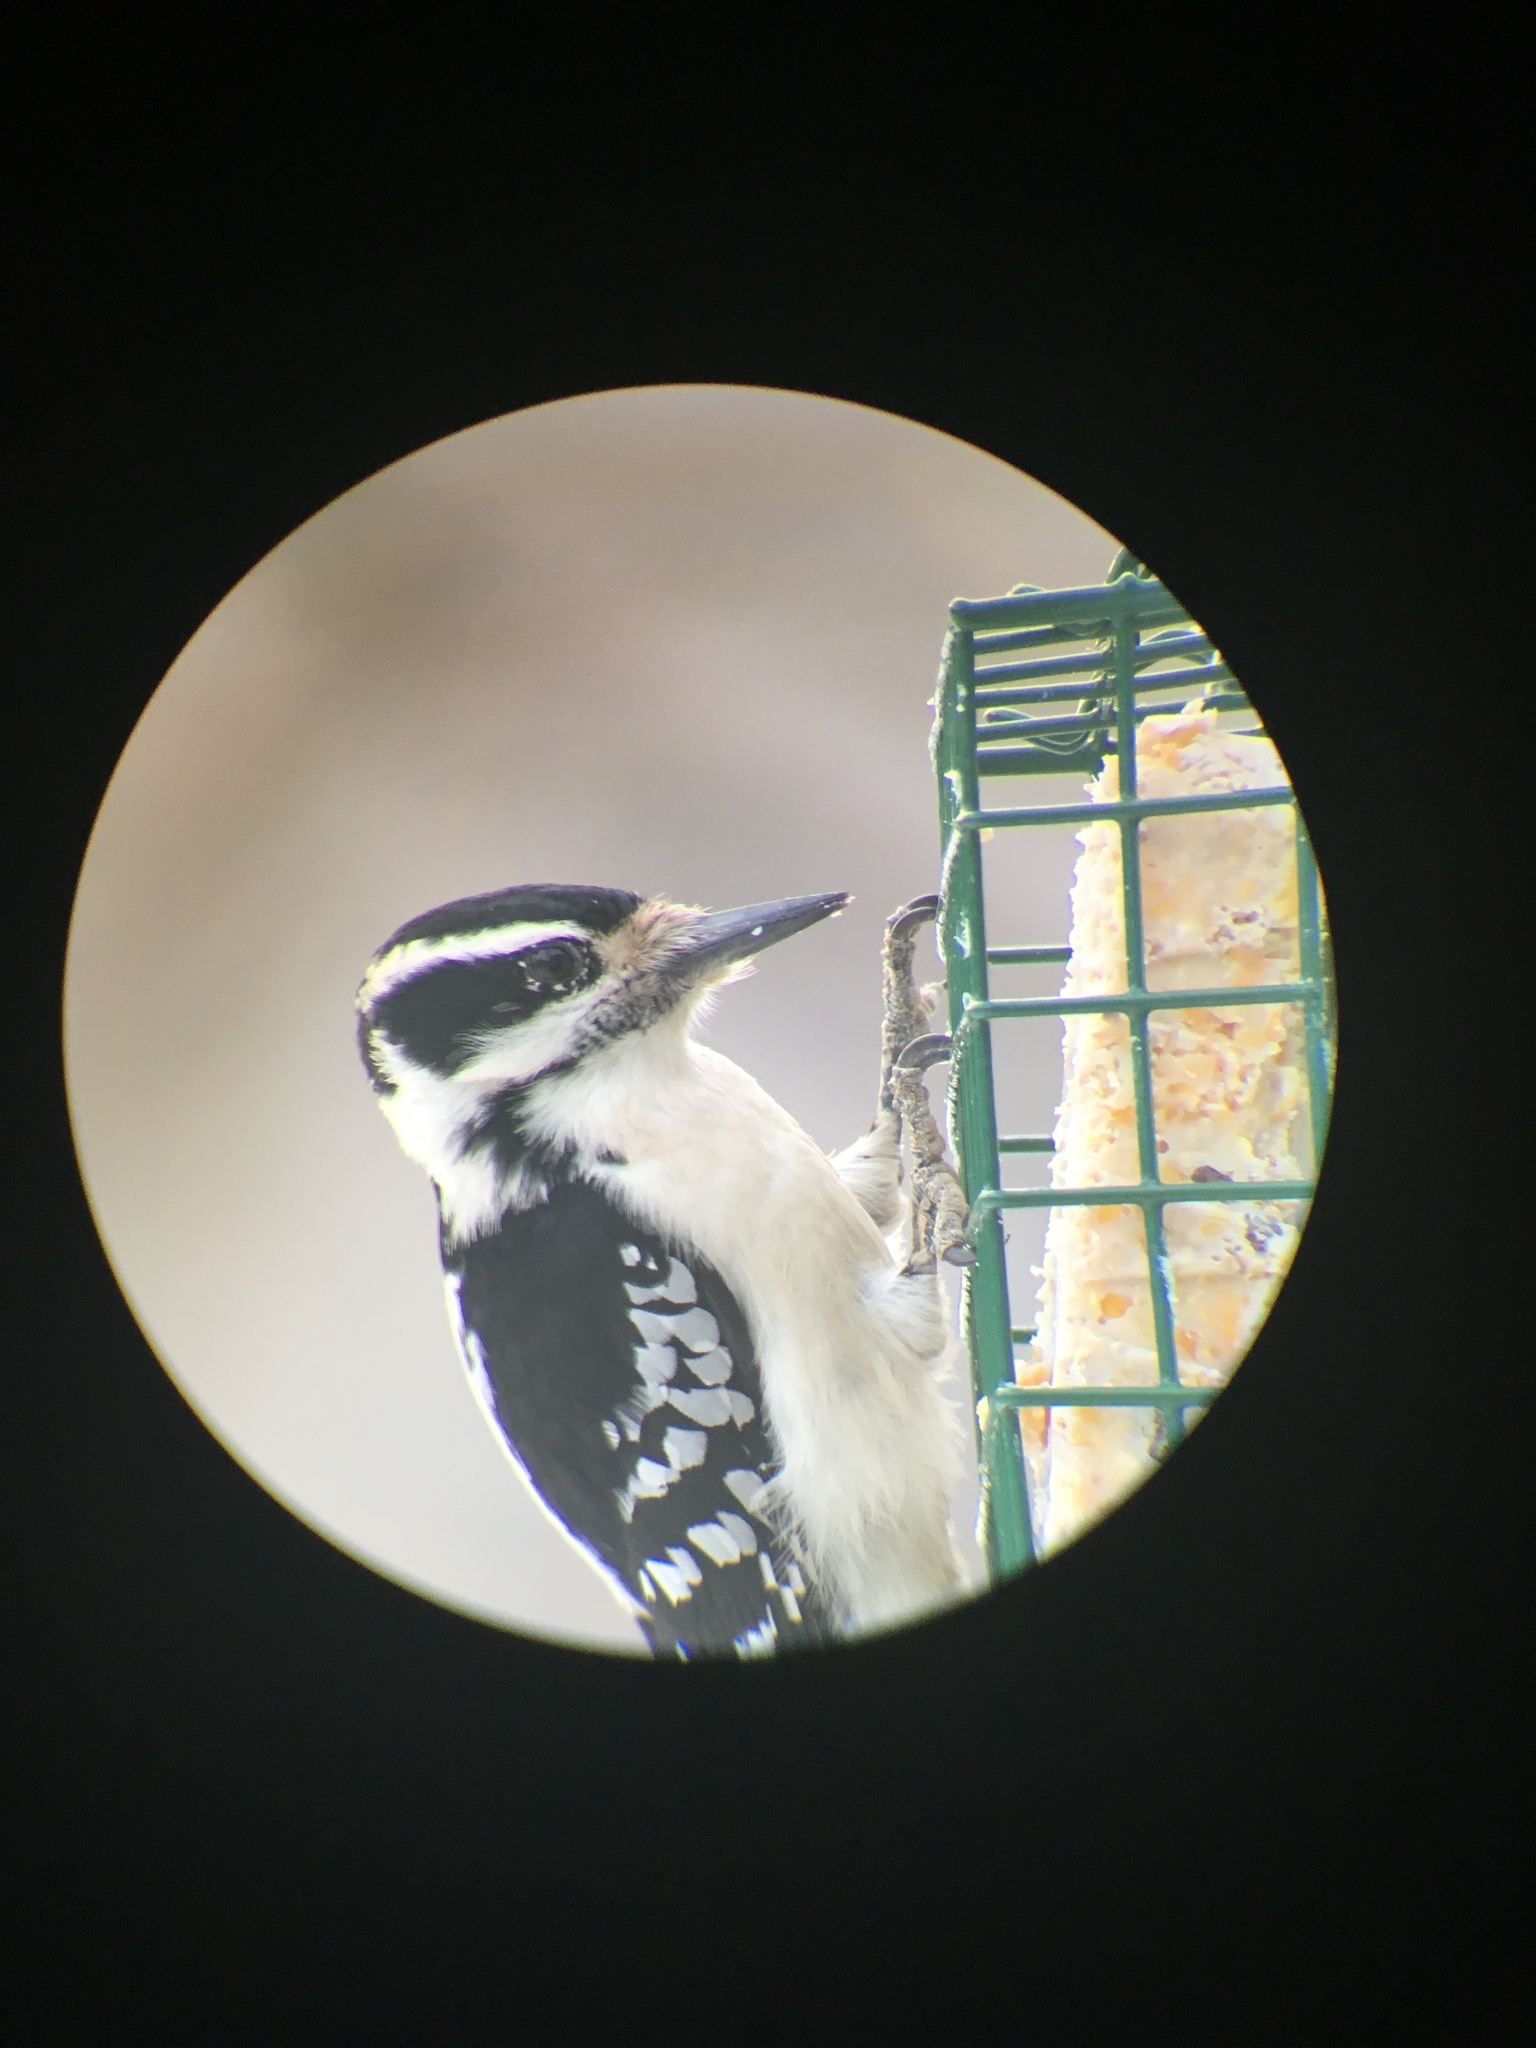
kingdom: Animalia
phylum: Chordata
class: Aves
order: Piciformes
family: Picidae
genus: Leuconotopicus
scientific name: Leuconotopicus villosus
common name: Hairy woodpecker
